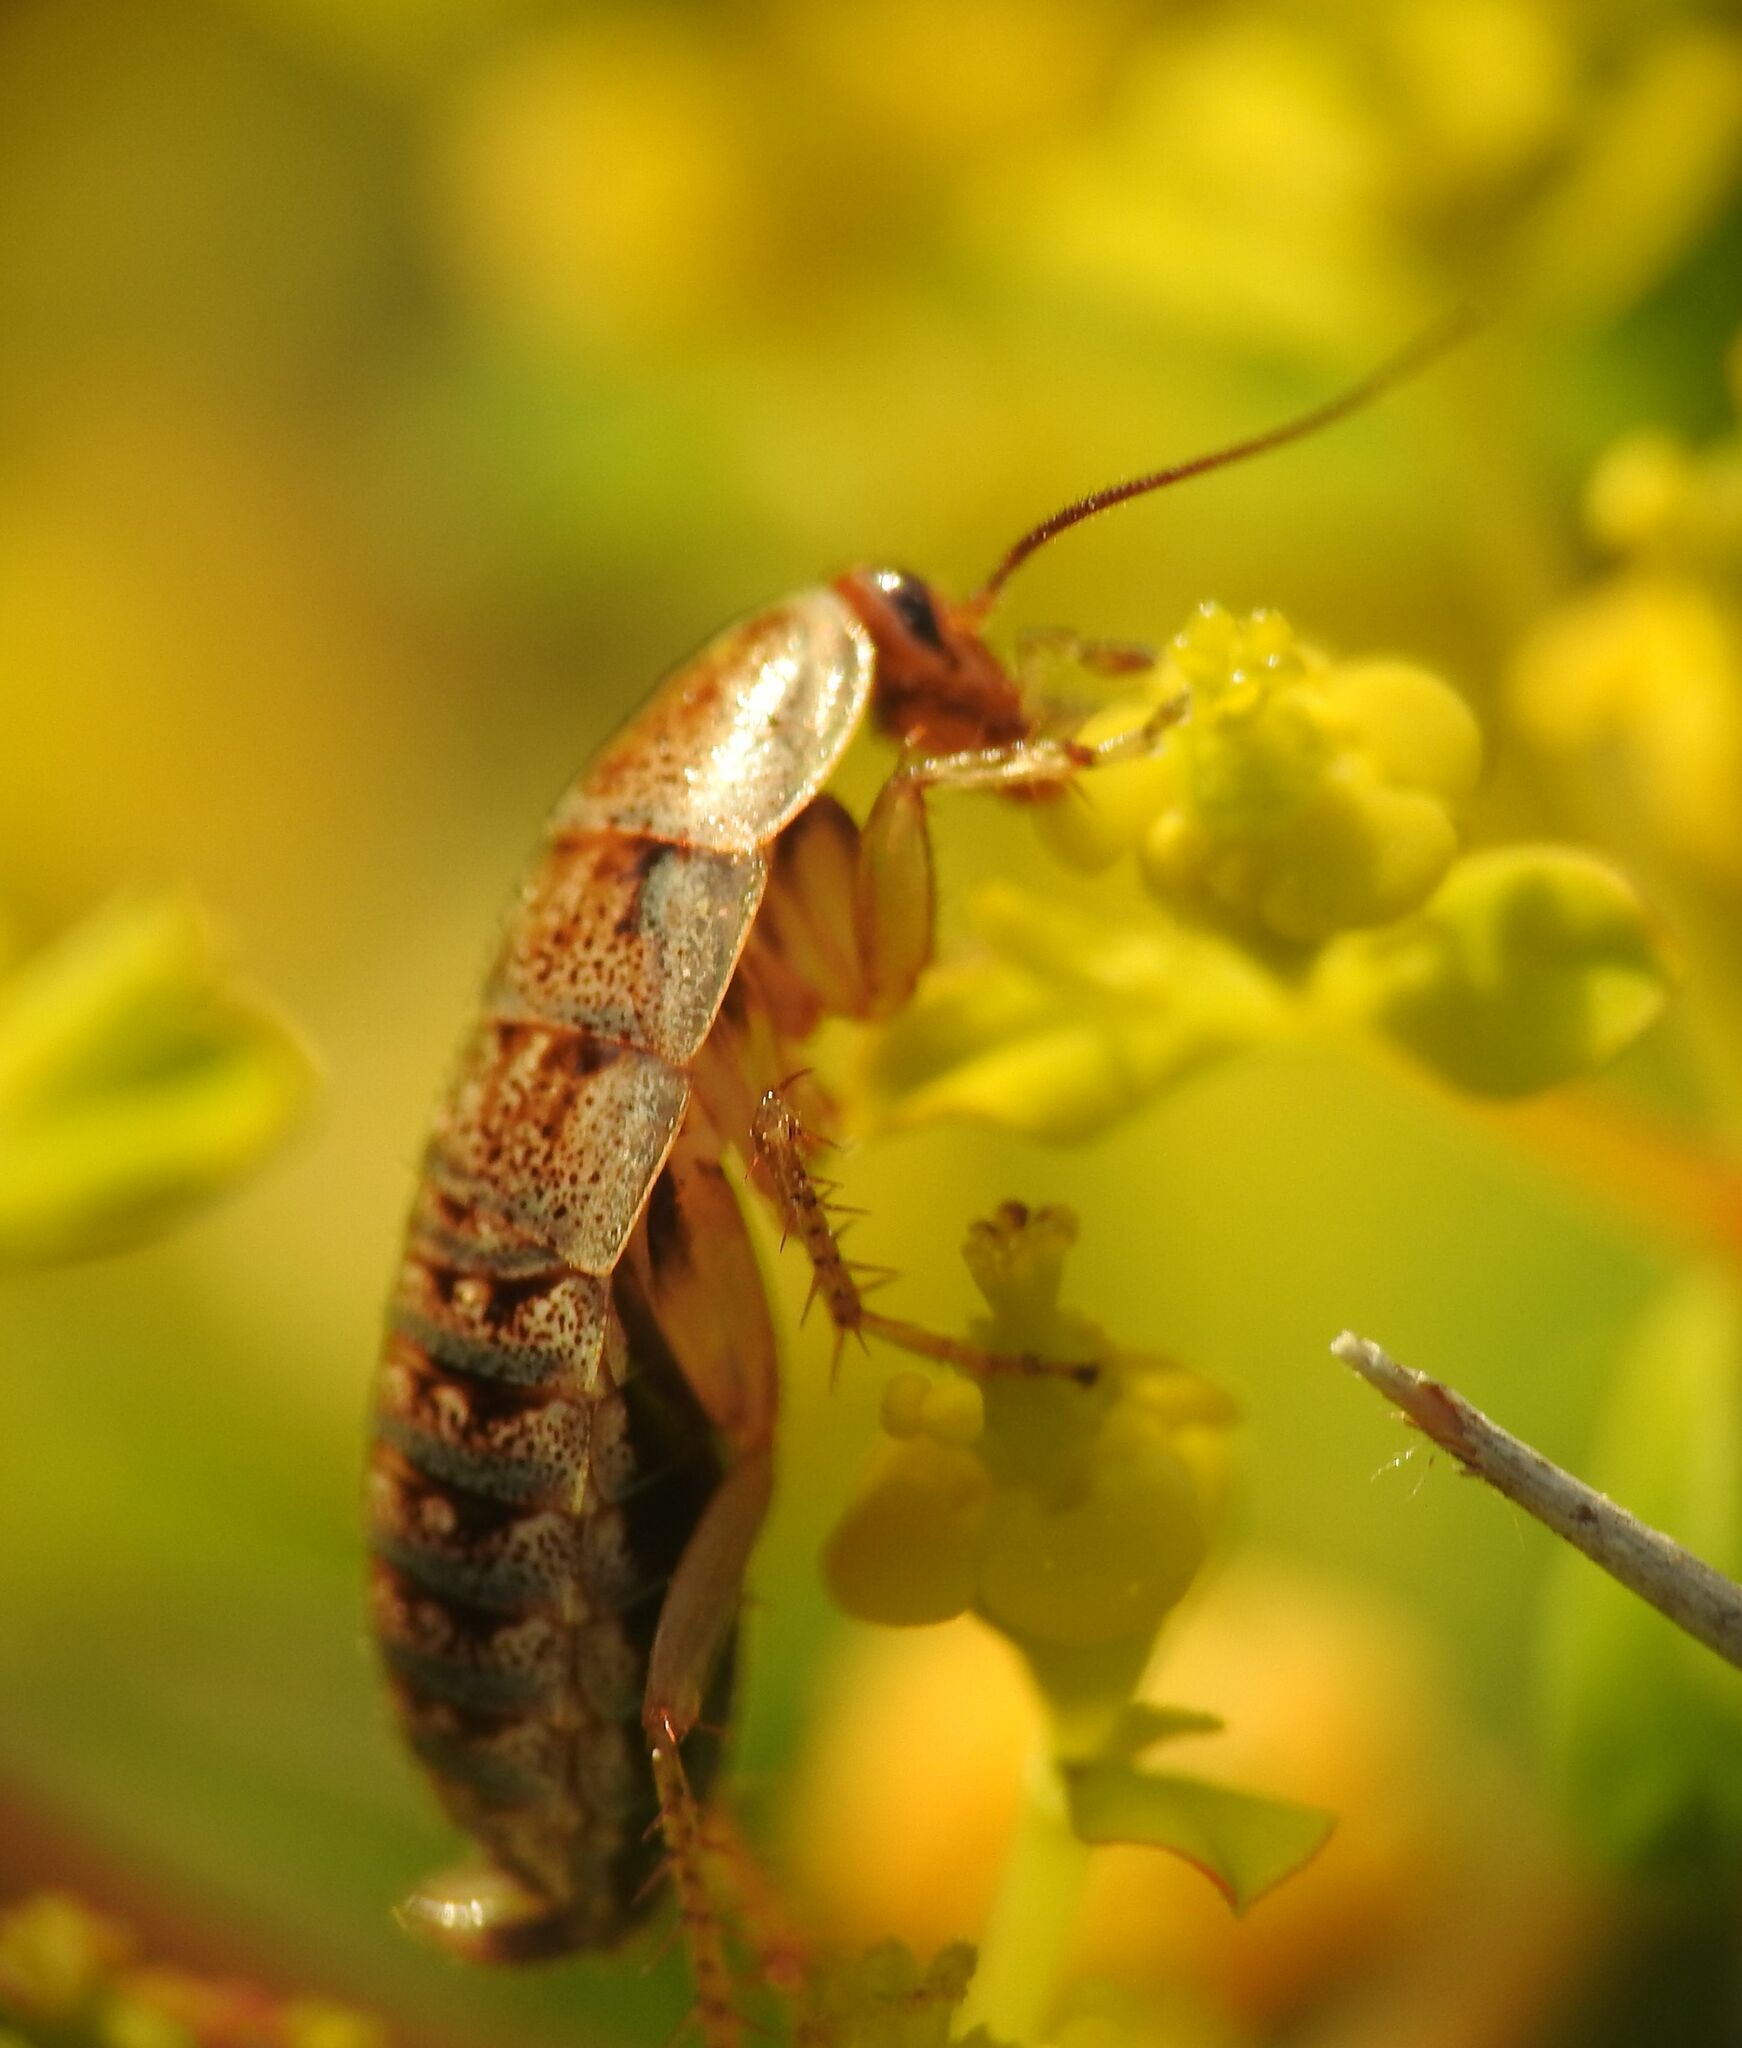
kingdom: Animalia
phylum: Arthropoda
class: Insecta
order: Blattodea
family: Ectobiidae
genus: Phyllodromica
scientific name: Phyllodromica
